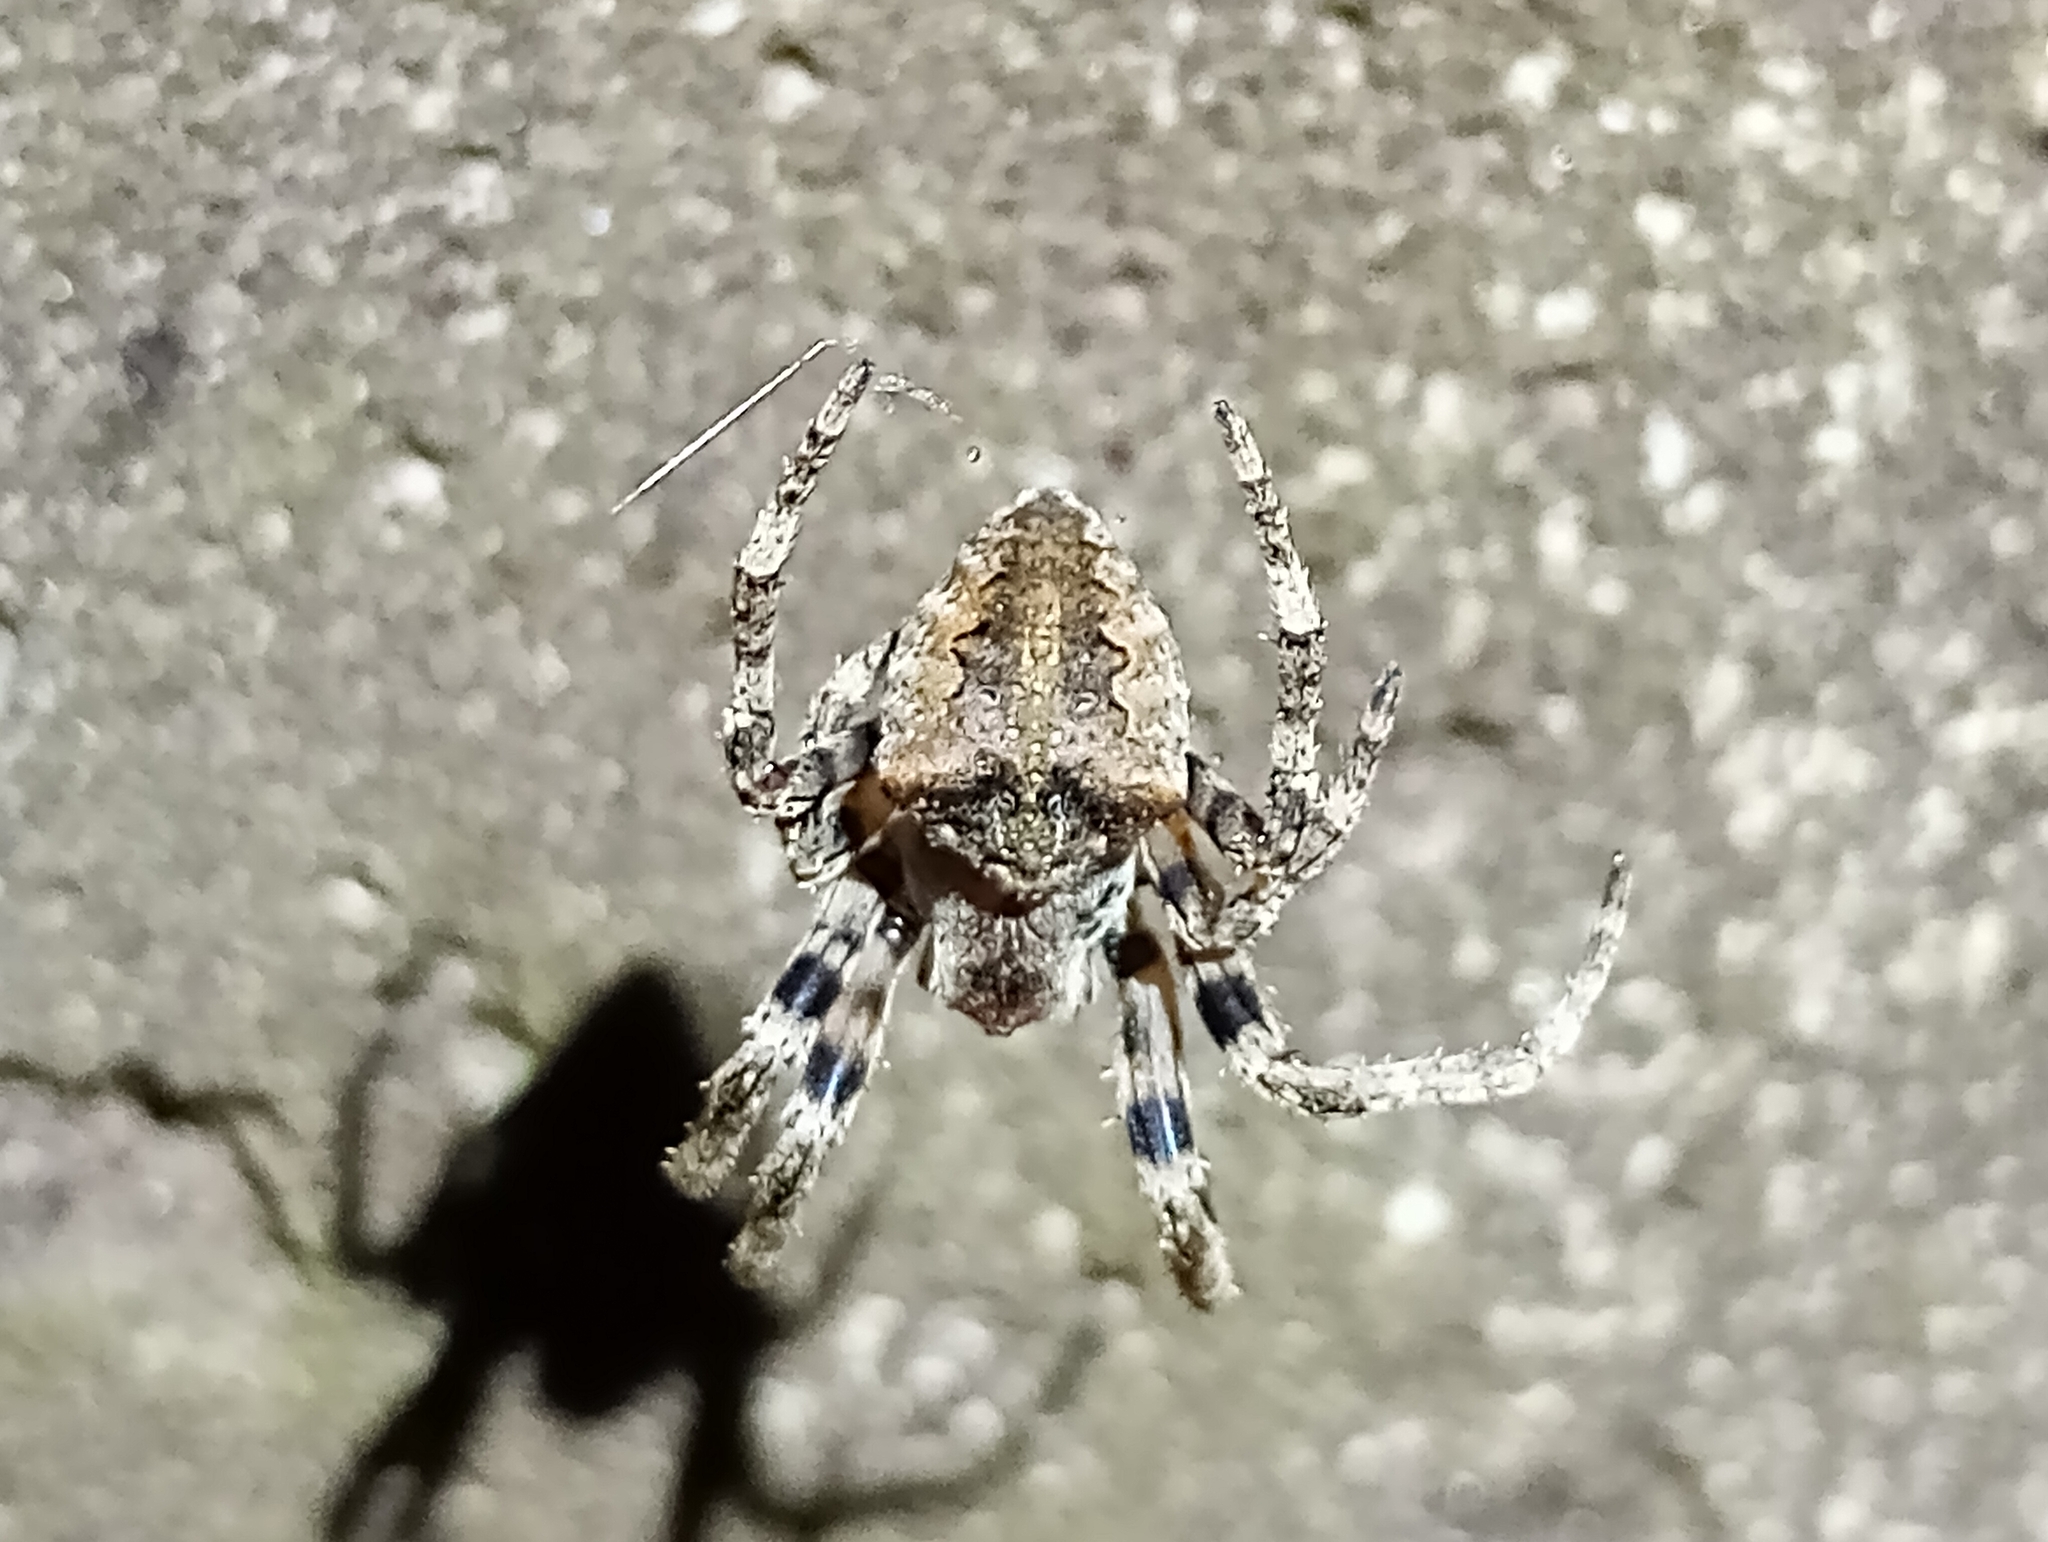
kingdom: Animalia
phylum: Arthropoda
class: Arachnida
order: Araneae
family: Araneidae
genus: Araneus
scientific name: Araneus angulatus
